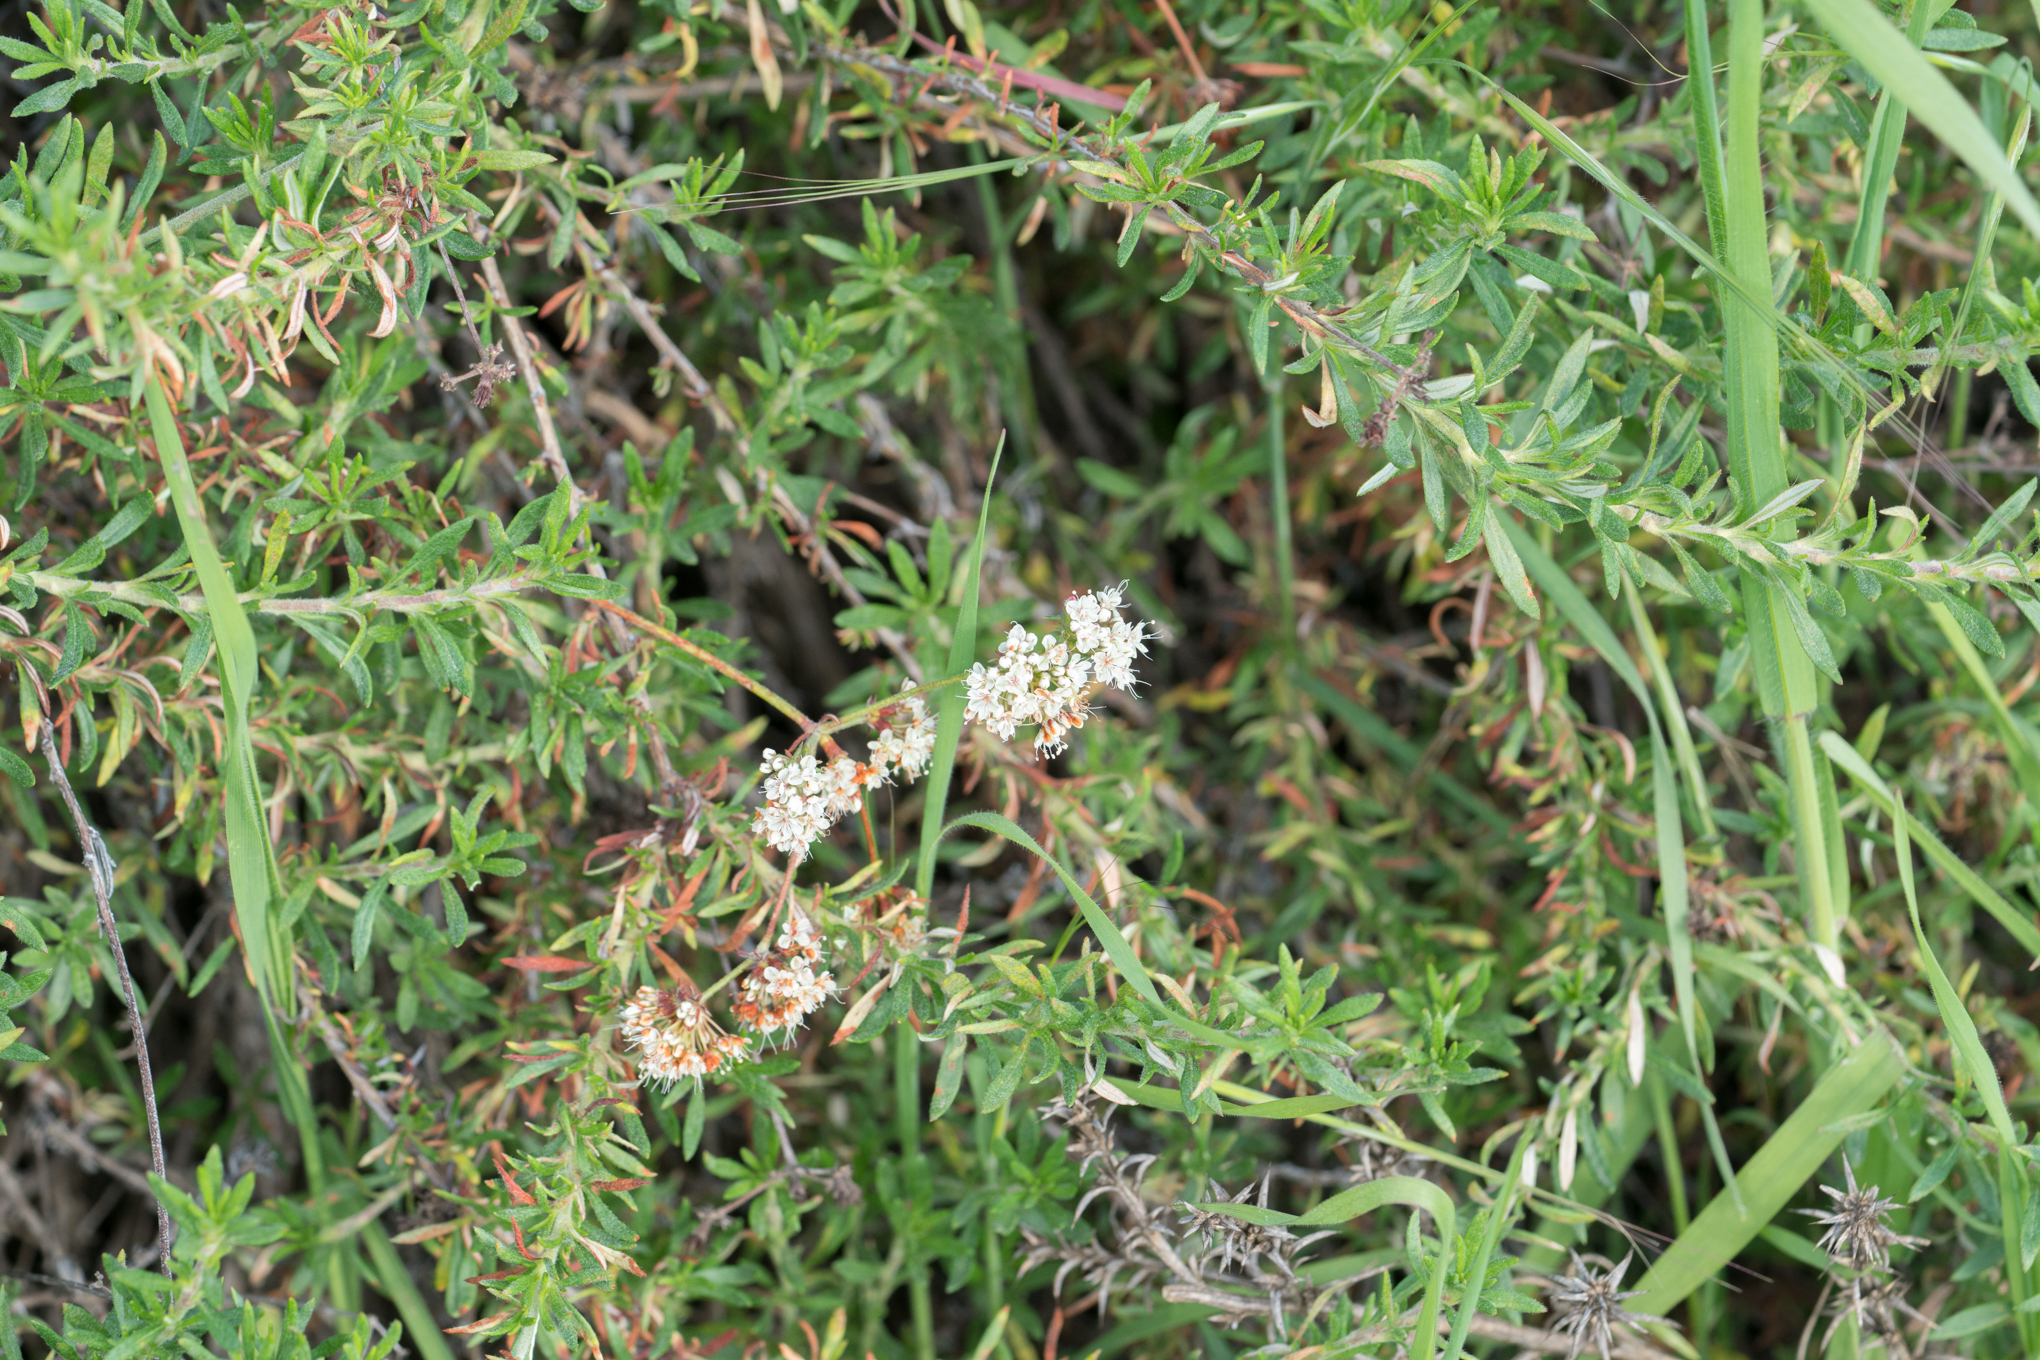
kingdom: Plantae
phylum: Tracheophyta
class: Magnoliopsida
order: Caryophyllales
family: Polygonaceae
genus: Eriogonum
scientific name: Eriogonum fasciculatum
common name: California wild buckwheat
